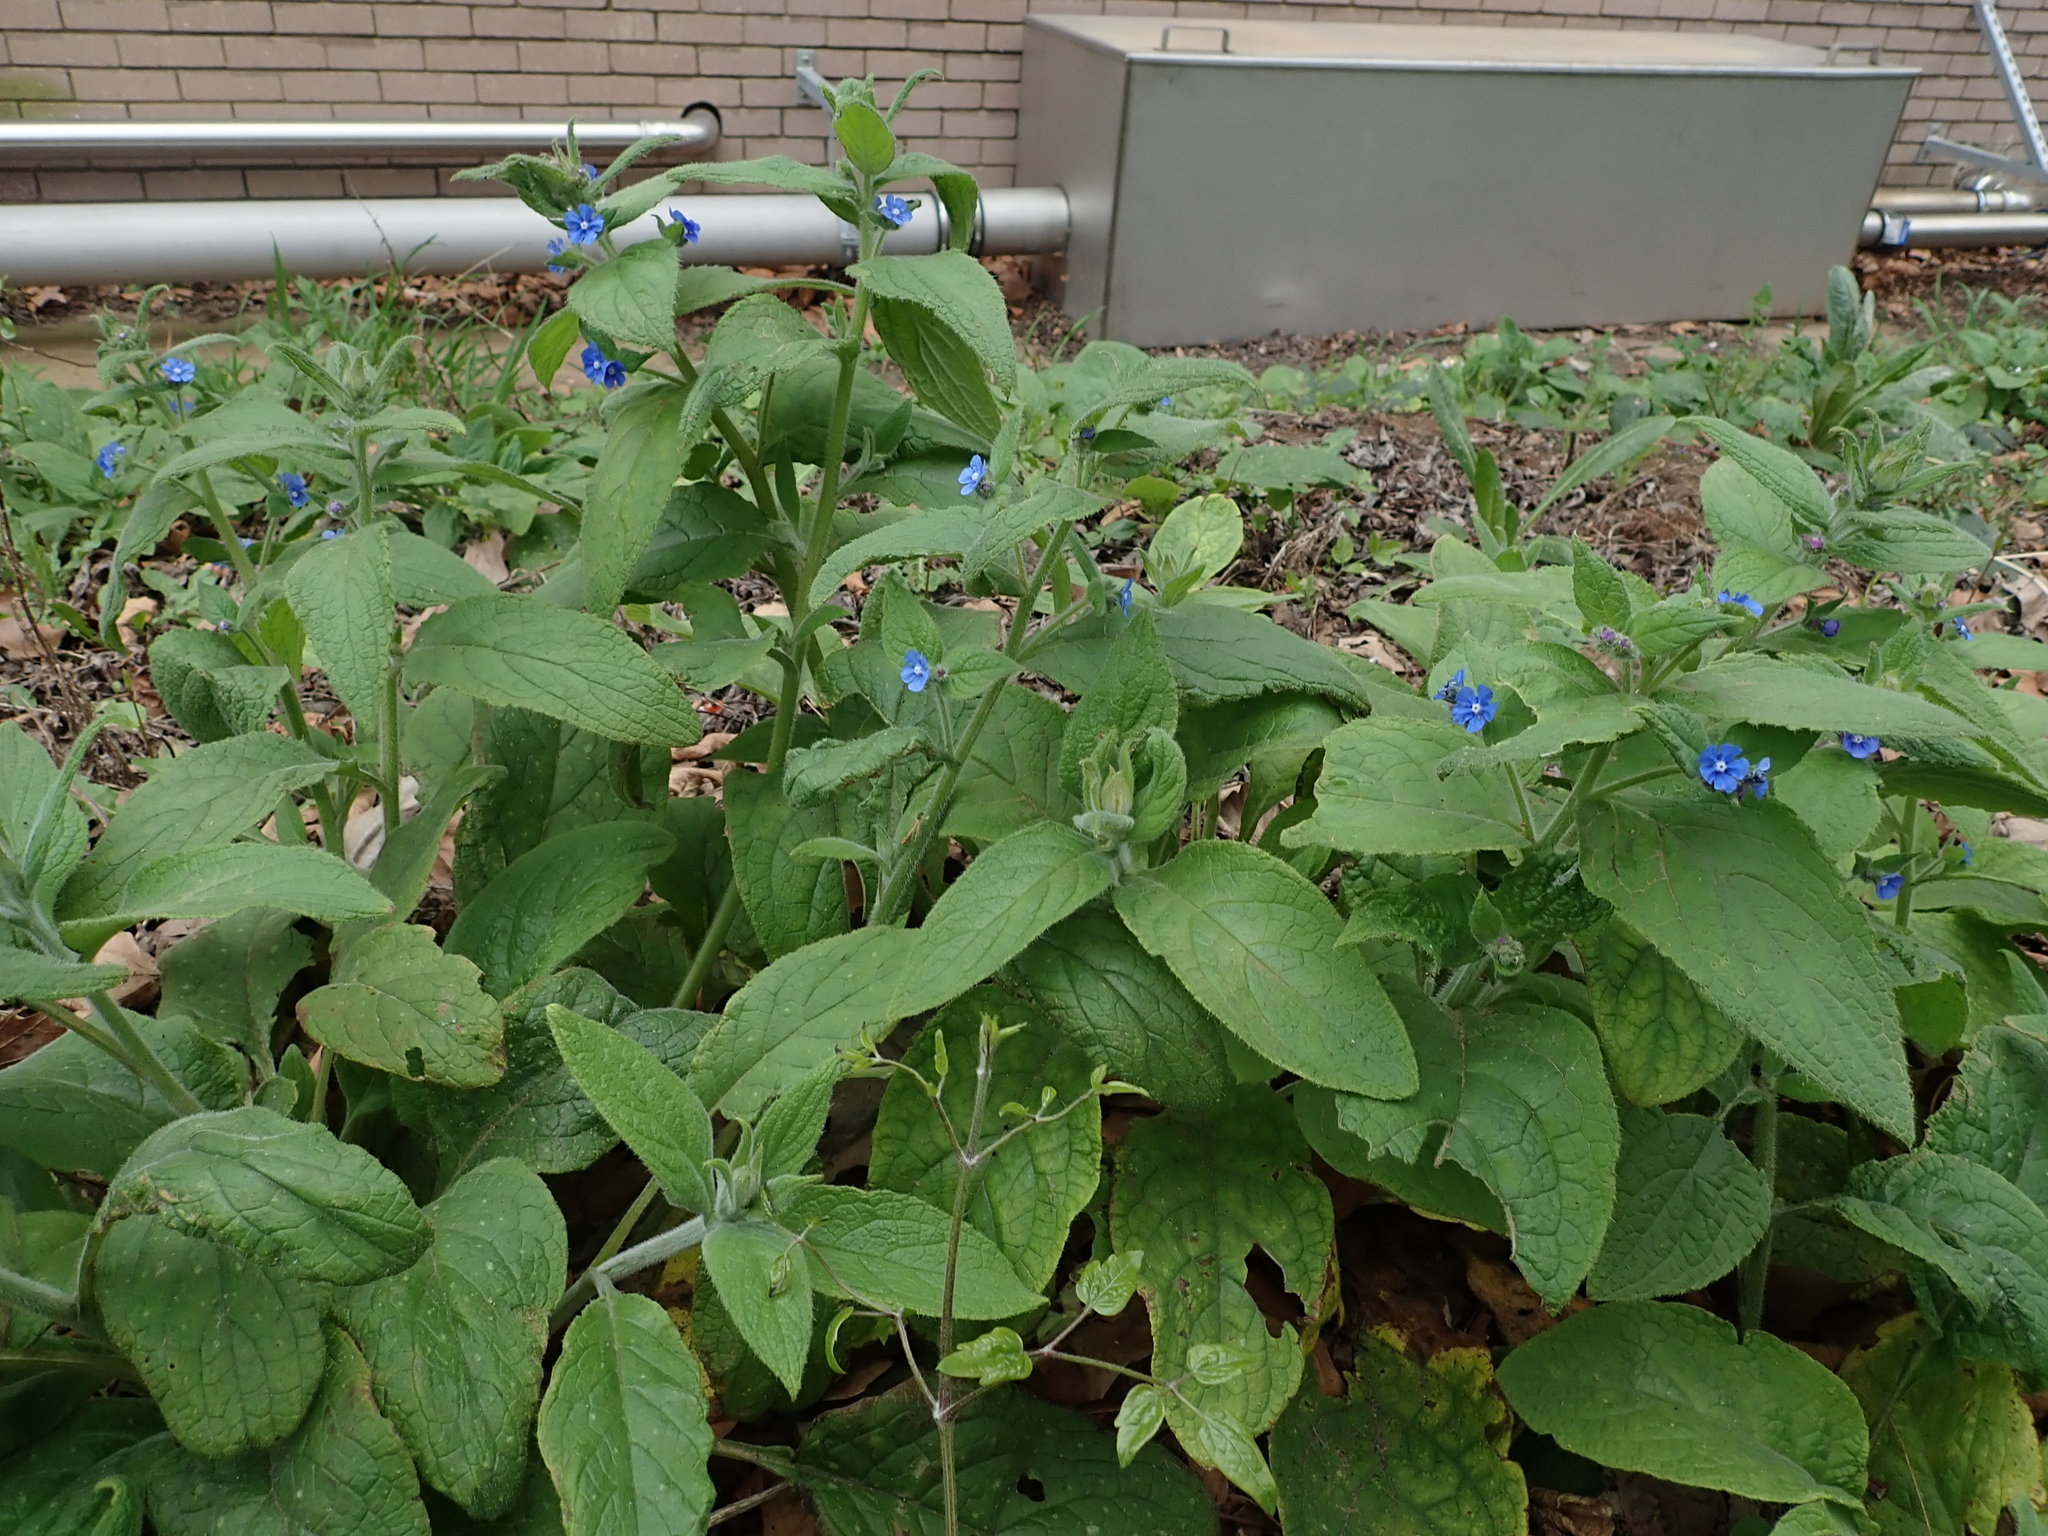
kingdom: Plantae
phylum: Tracheophyta
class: Magnoliopsida
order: Boraginales
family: Boraginaceae
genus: Pentaglottis
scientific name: Pentaglottis sempervirens
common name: Green alkanet
